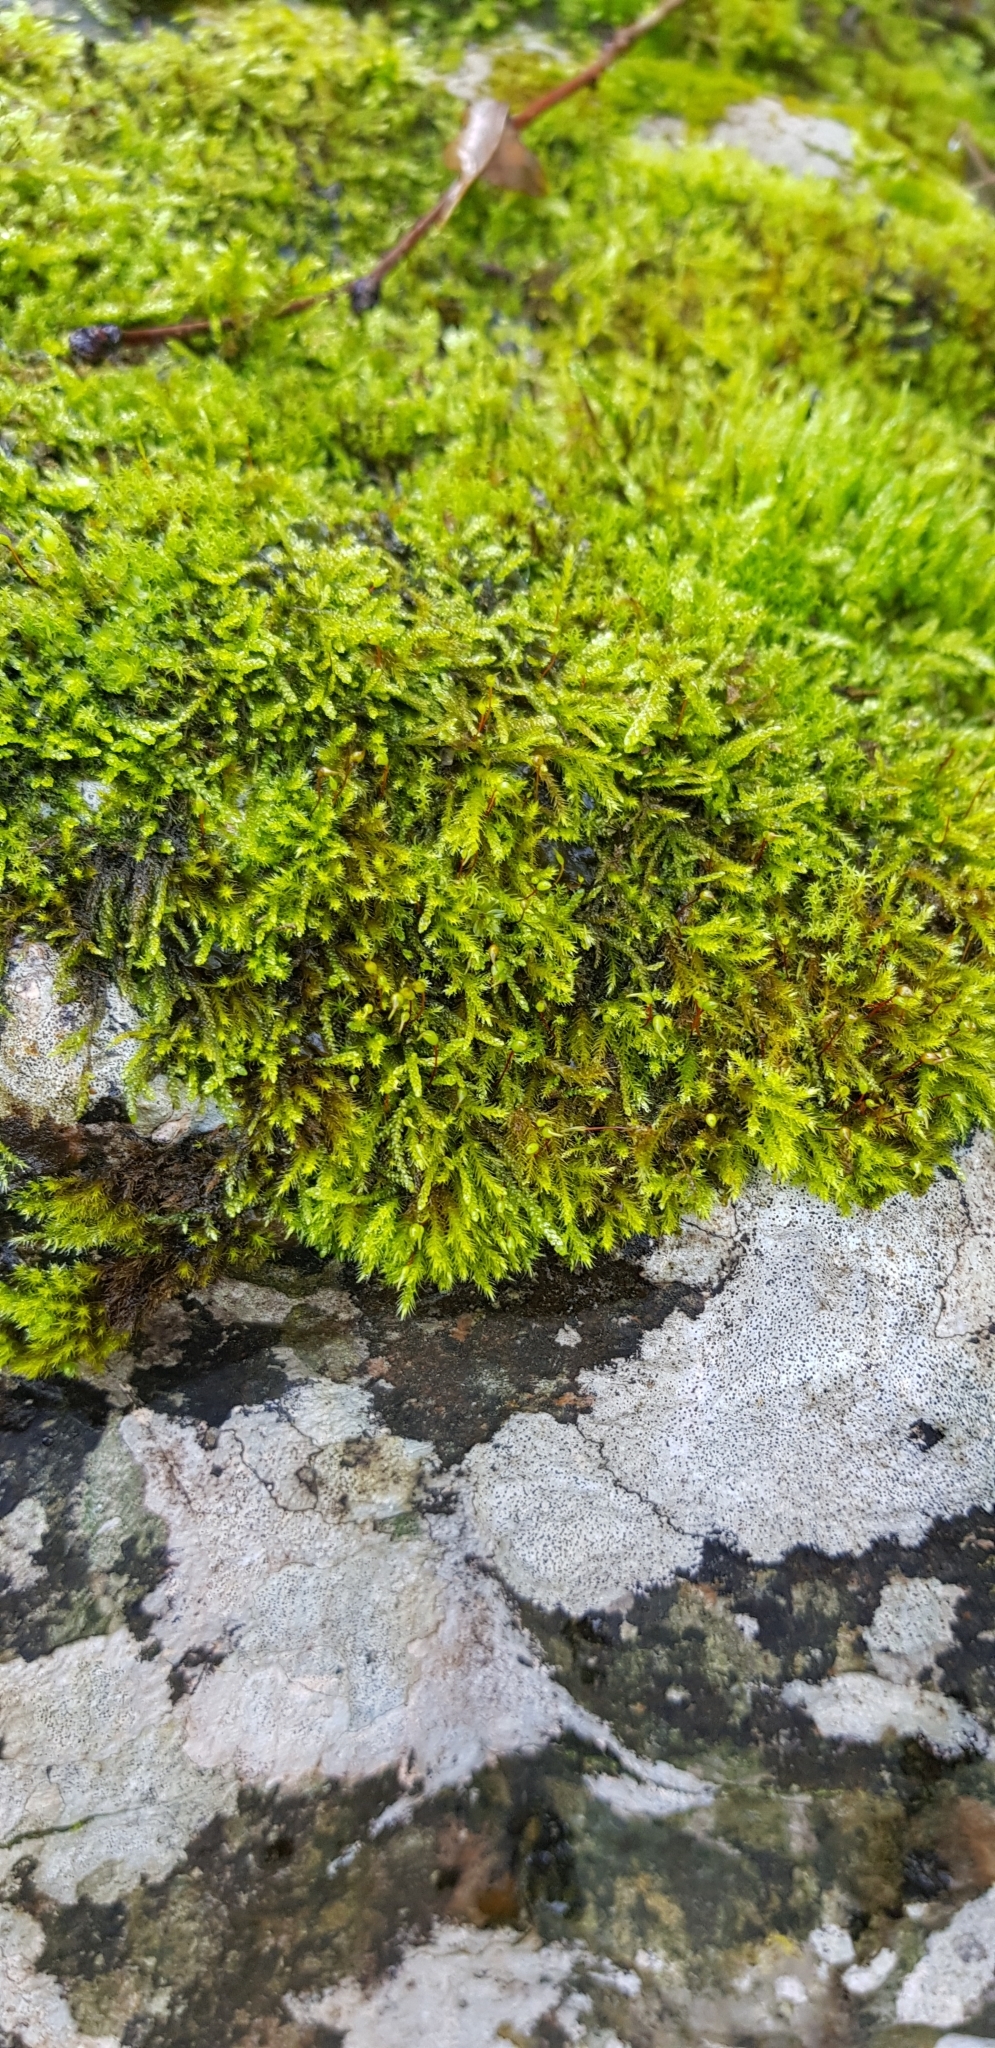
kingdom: Plantae
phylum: Bryophyta
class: Bryopsida
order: Hypnales
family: Brachytheciaceae
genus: Rhynchostegium
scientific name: Rhynchostegium murale
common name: Wall feather-moss
